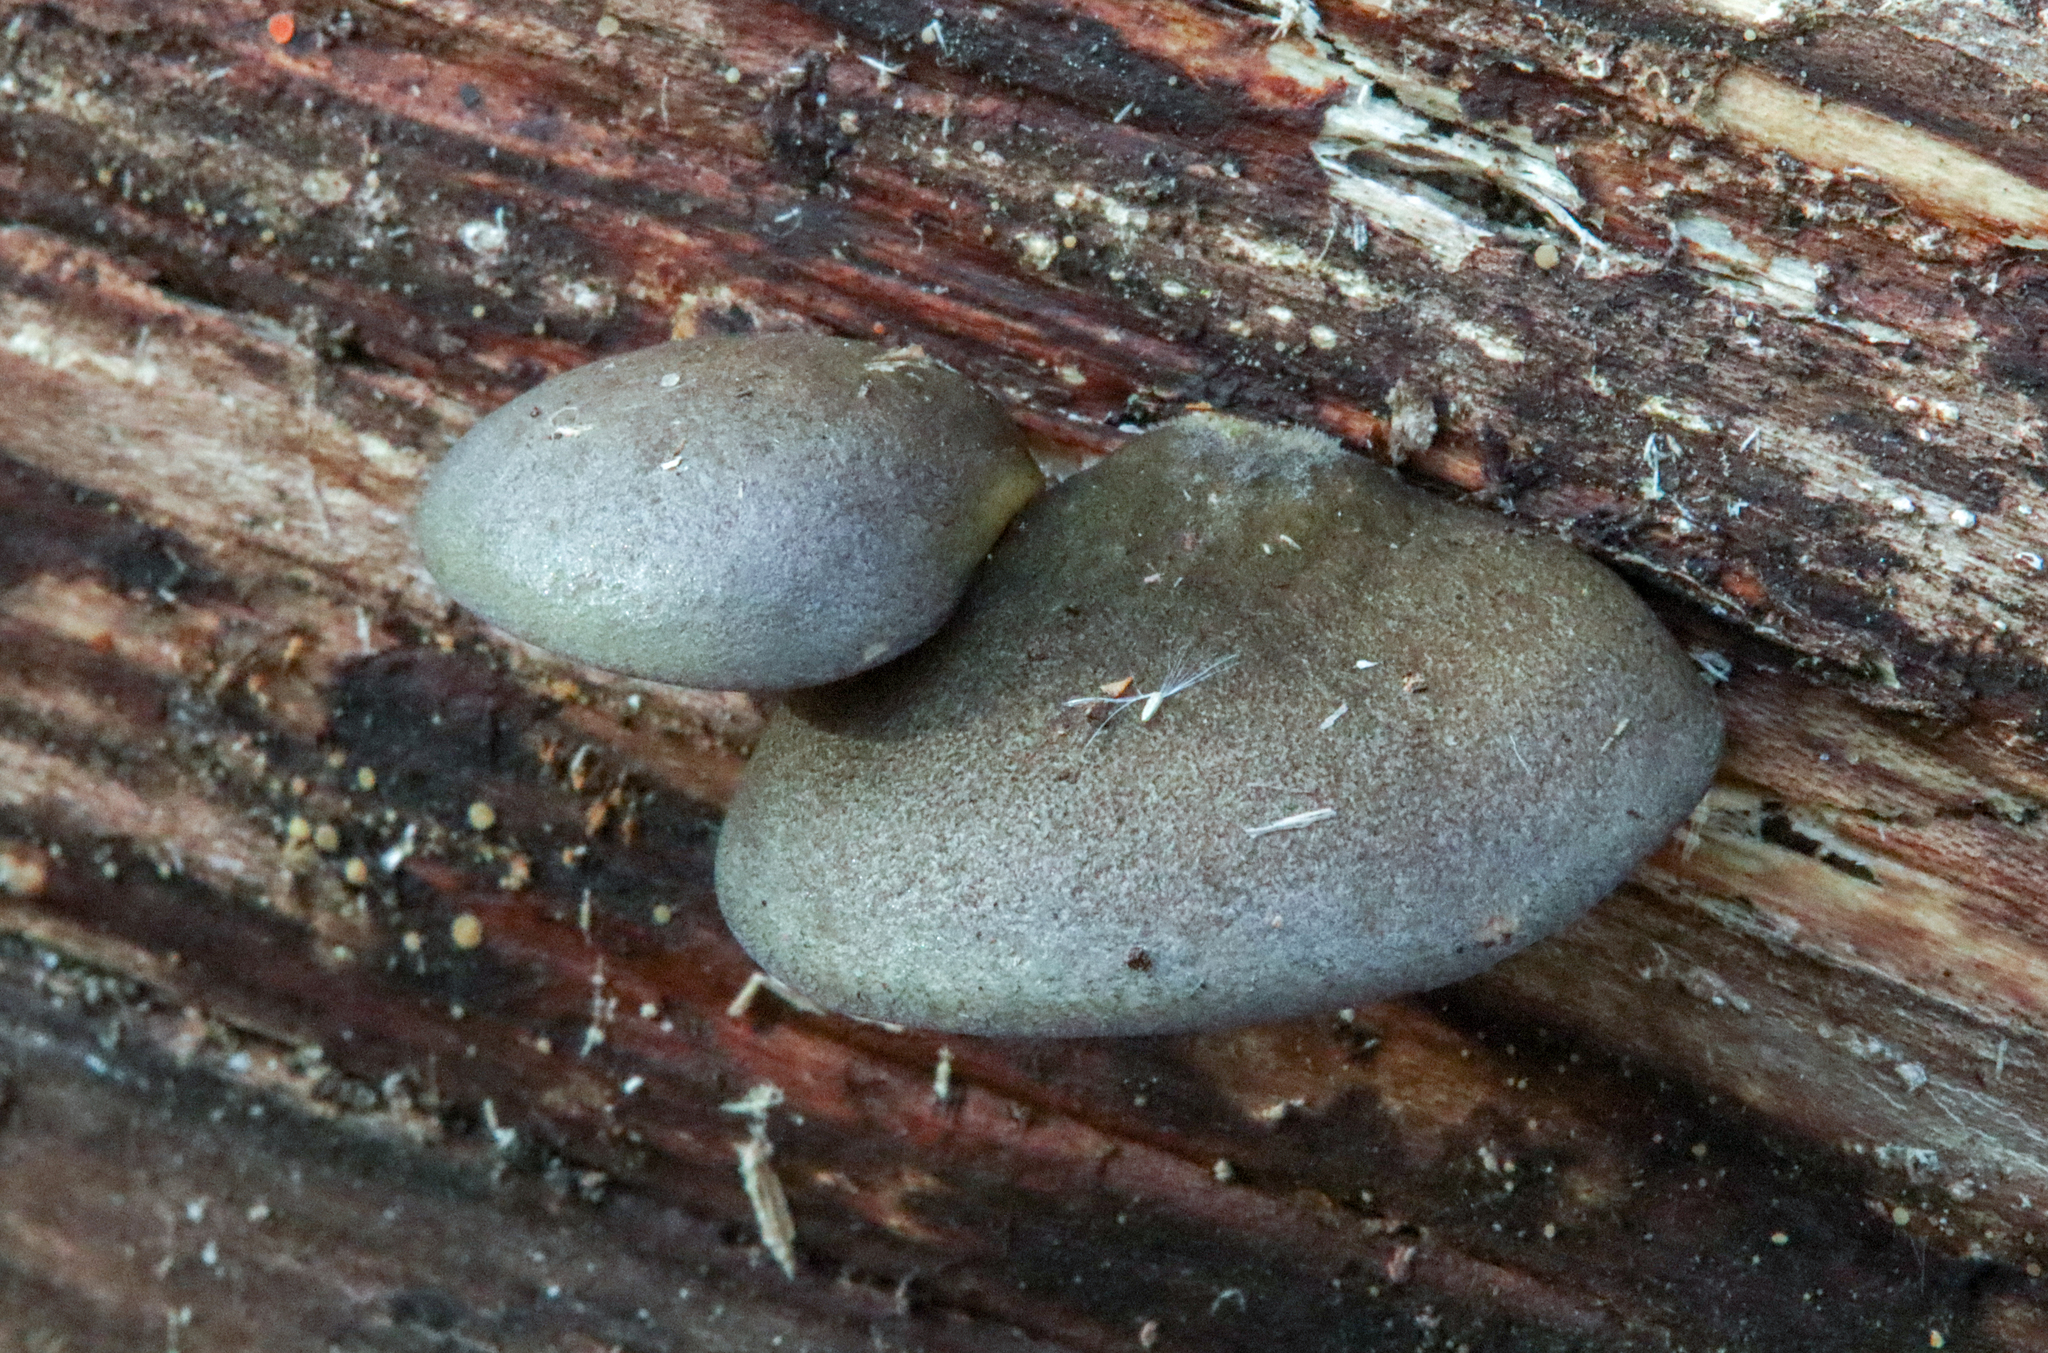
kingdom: Fungi
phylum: Basidiomycota
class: Agaricomycetes
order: Agaricales
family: Sarcomyxaceae
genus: Sarcomyxa
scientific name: Sarcomyxa serotina
